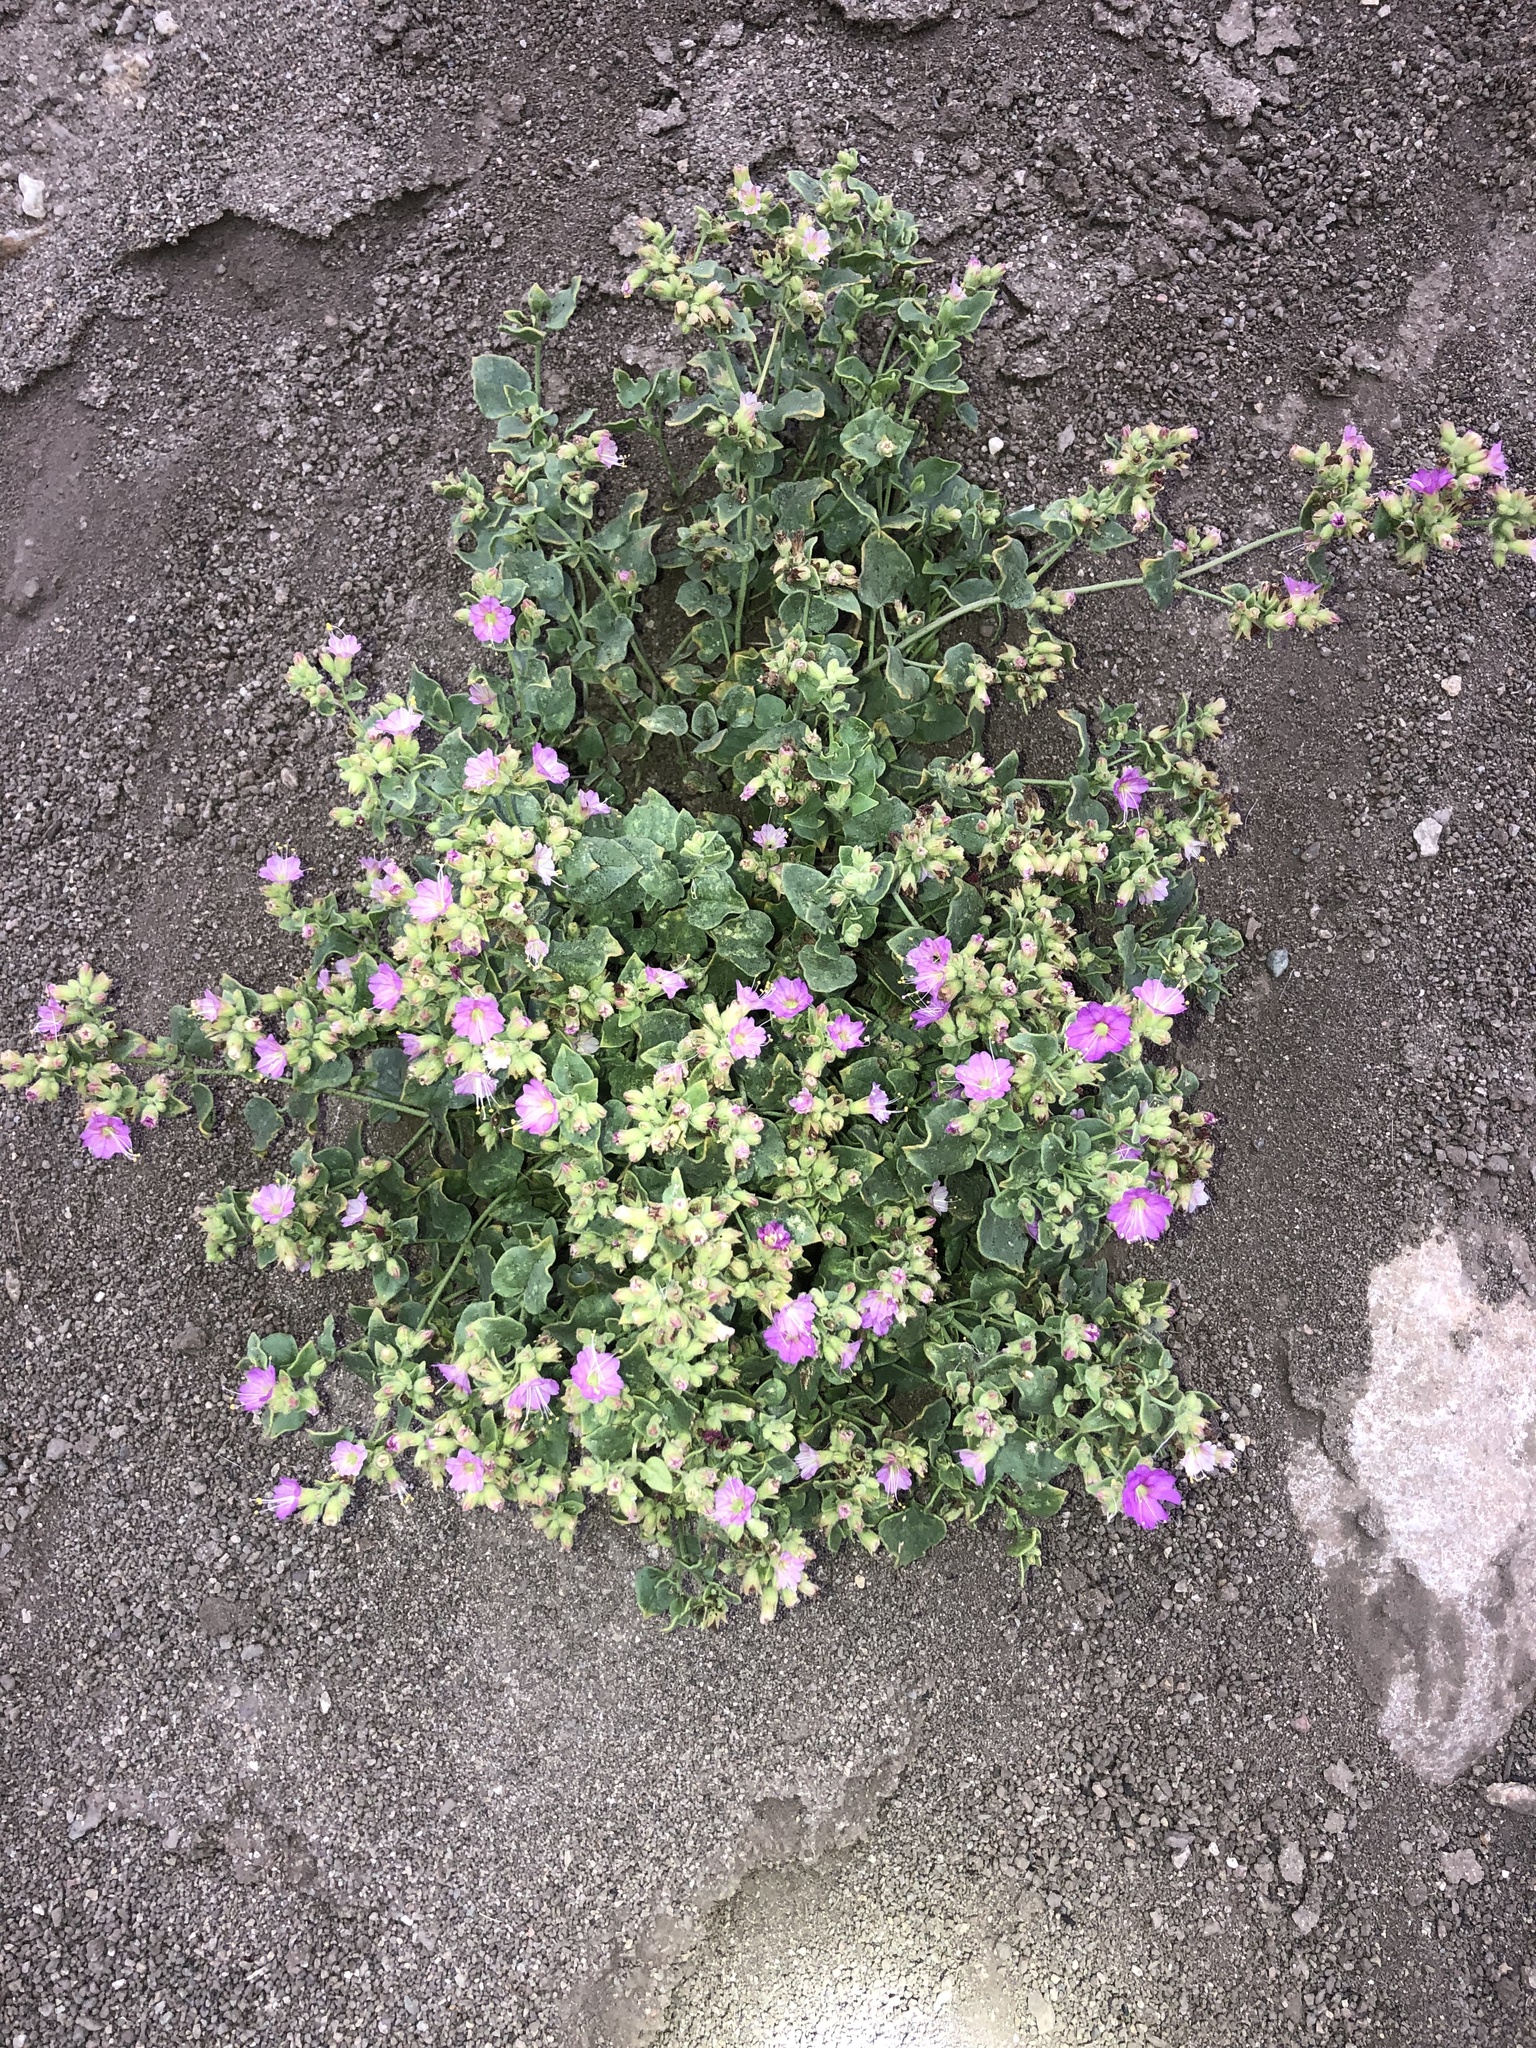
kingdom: Plantae
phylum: Tracheophyta
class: Magnoliopsida
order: Caryophyllales
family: Nyctaginaceae
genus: Mirabilis
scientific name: Mirabilis laevis
